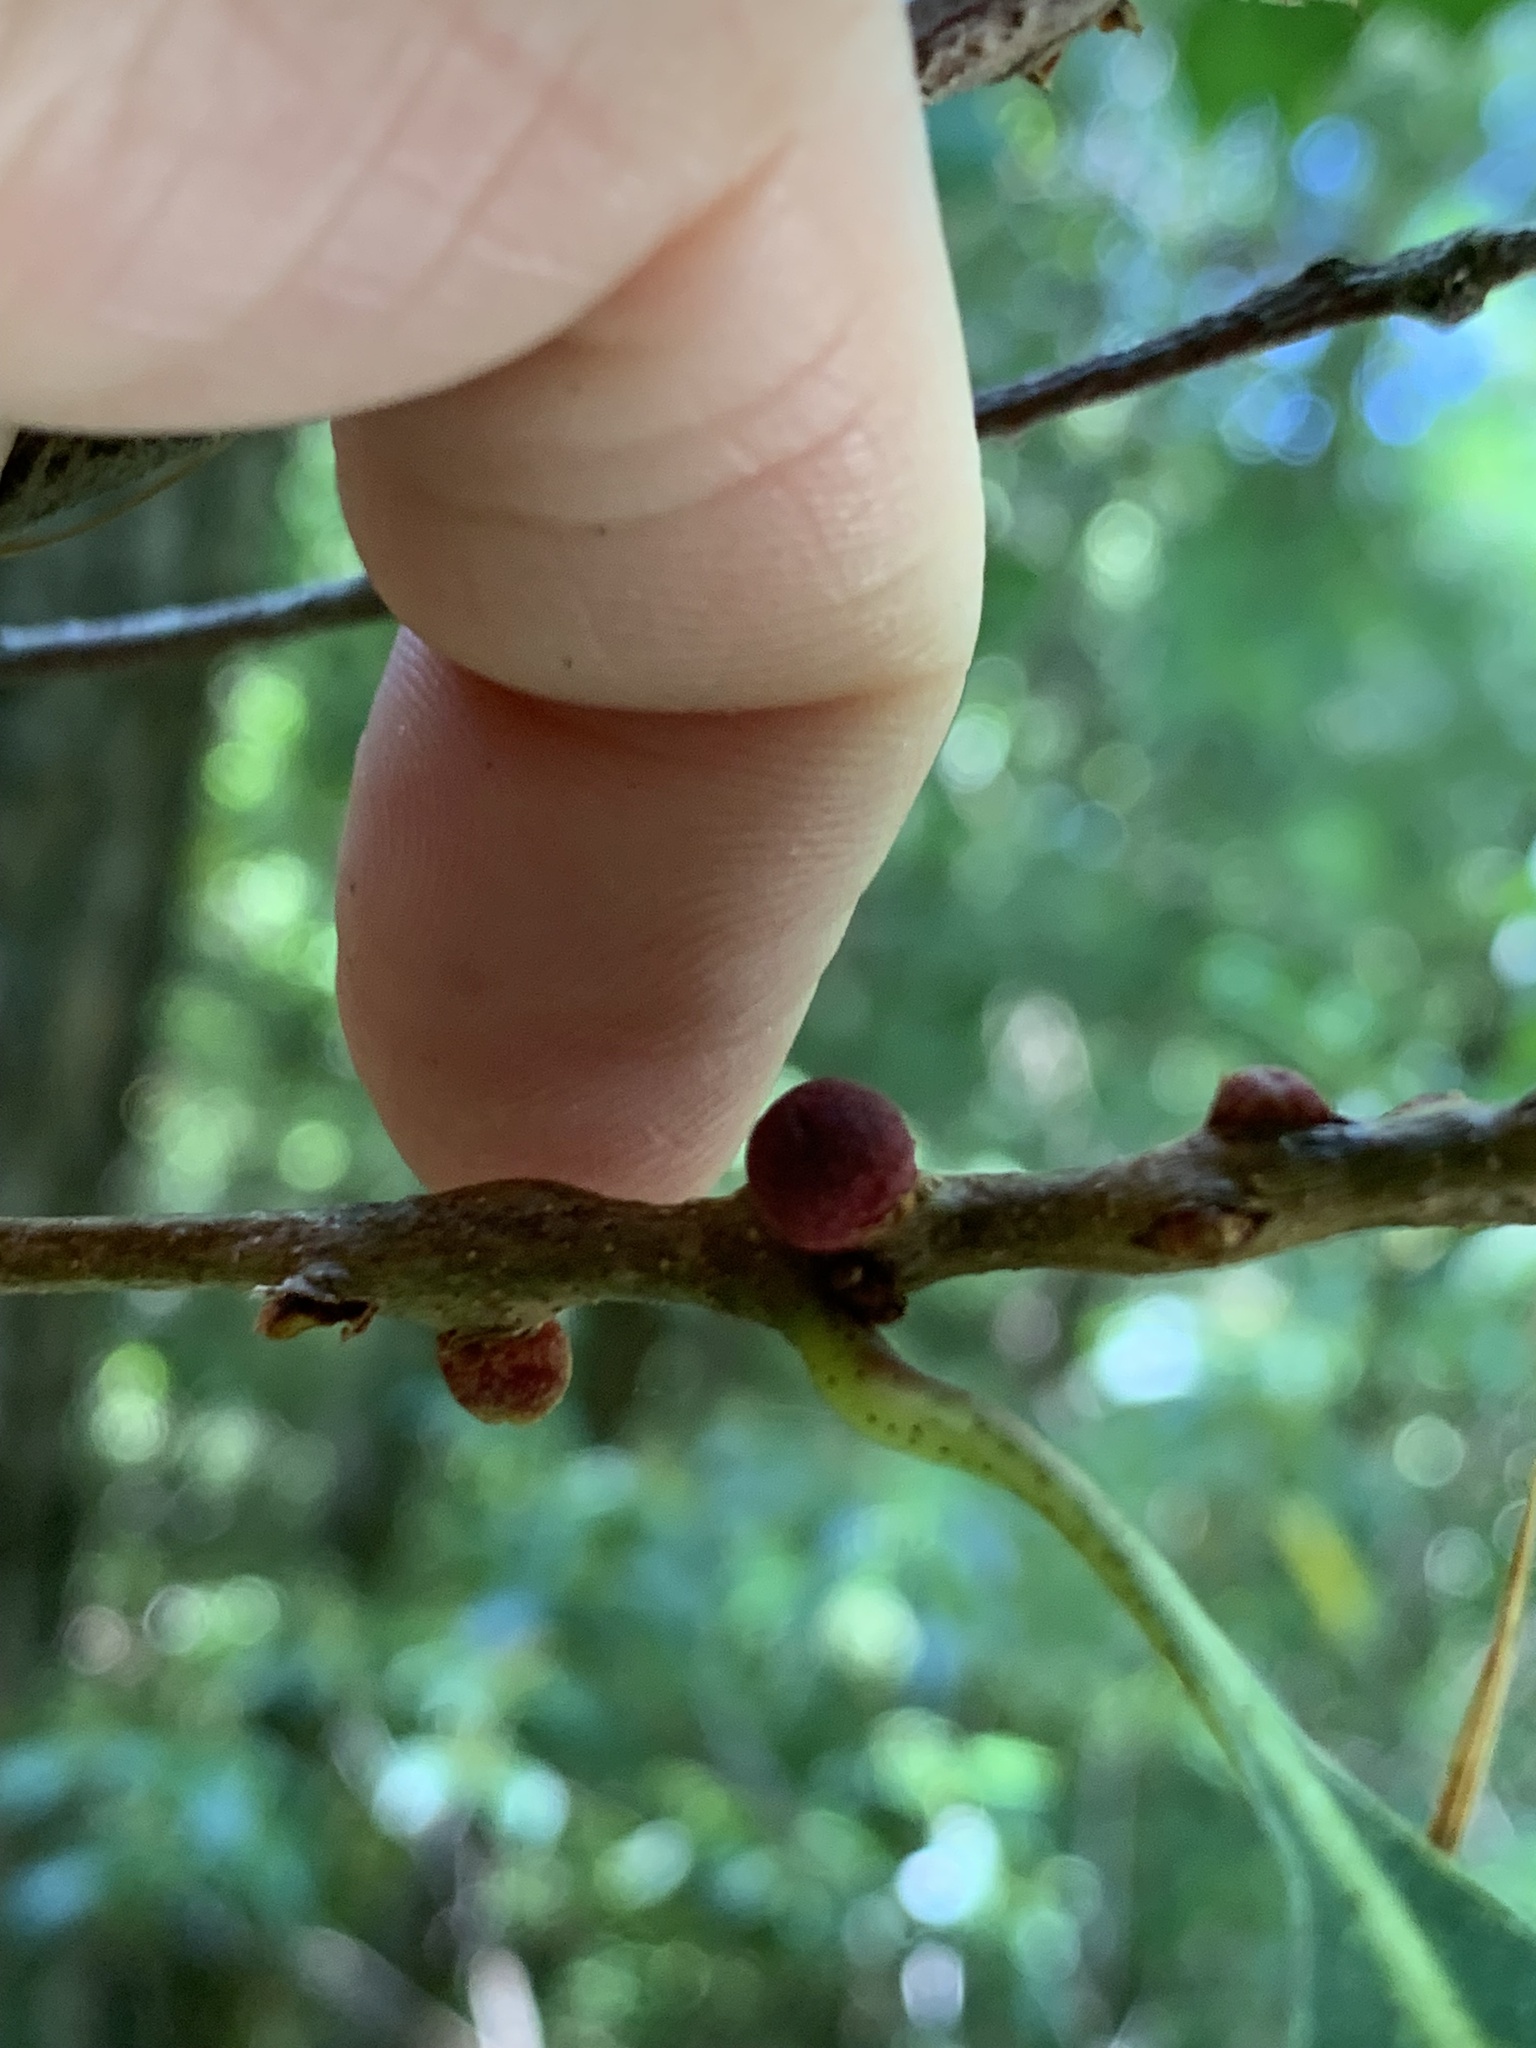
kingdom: Animalia
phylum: Arthropoda
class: Insecta
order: Hymenoptera
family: Cynipidae
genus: Kokkocynips
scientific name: Kokkocynips imbricariae
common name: Banded bullet gall wasp
